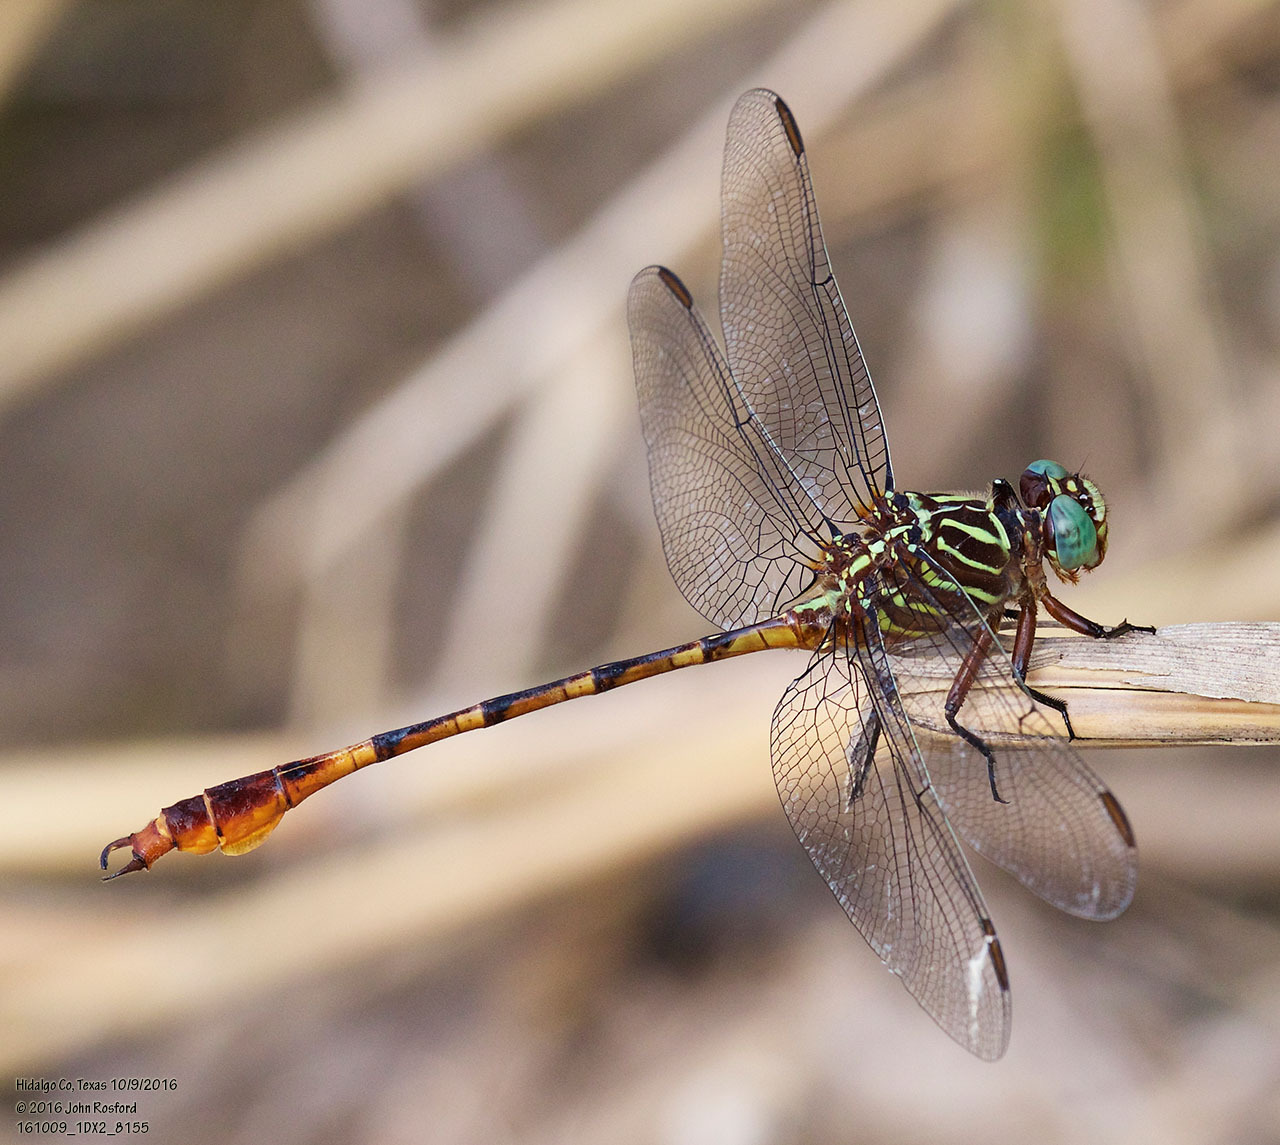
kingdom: Animalia
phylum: Arthropoda
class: Insecta
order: Odonata
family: Gomphidae
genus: Aphylla
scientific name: Aphylla protracta
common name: Narrow-striped forceptail
